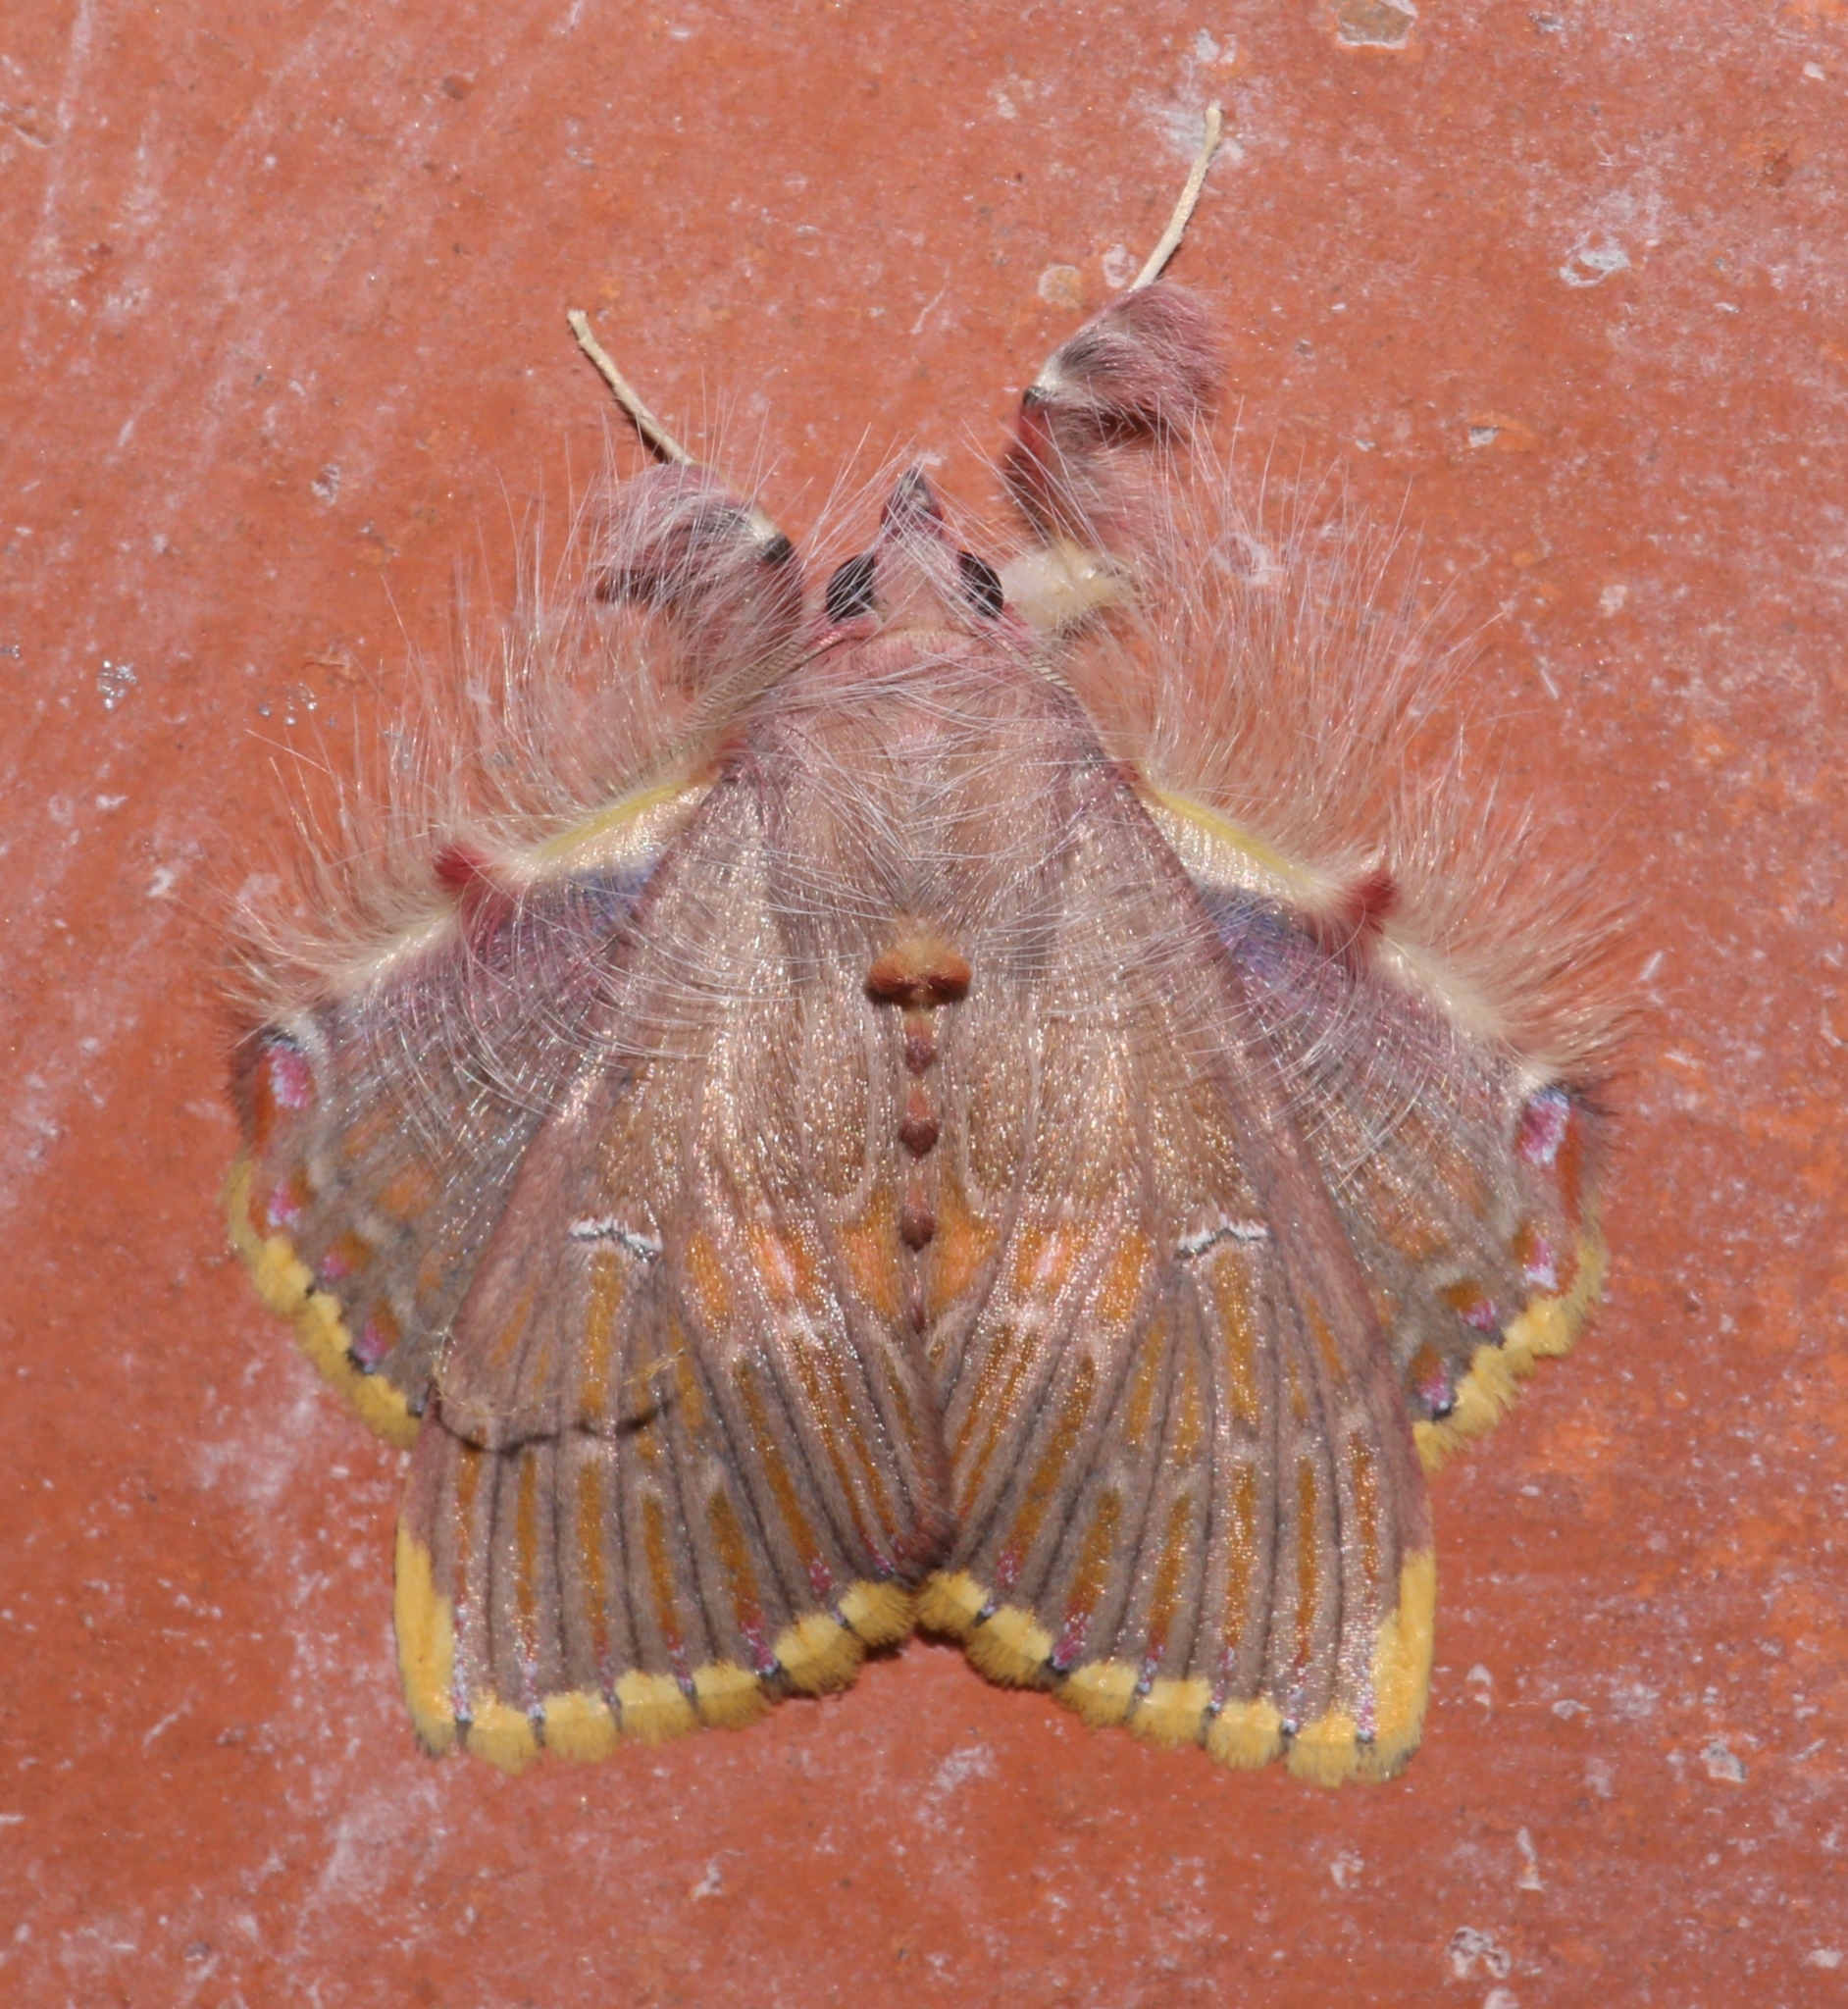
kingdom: Animalia
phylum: Arthropoda
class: Insecta
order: Lepidoptera
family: Erebidae
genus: Sosxetra
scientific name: Sosxetra grata
